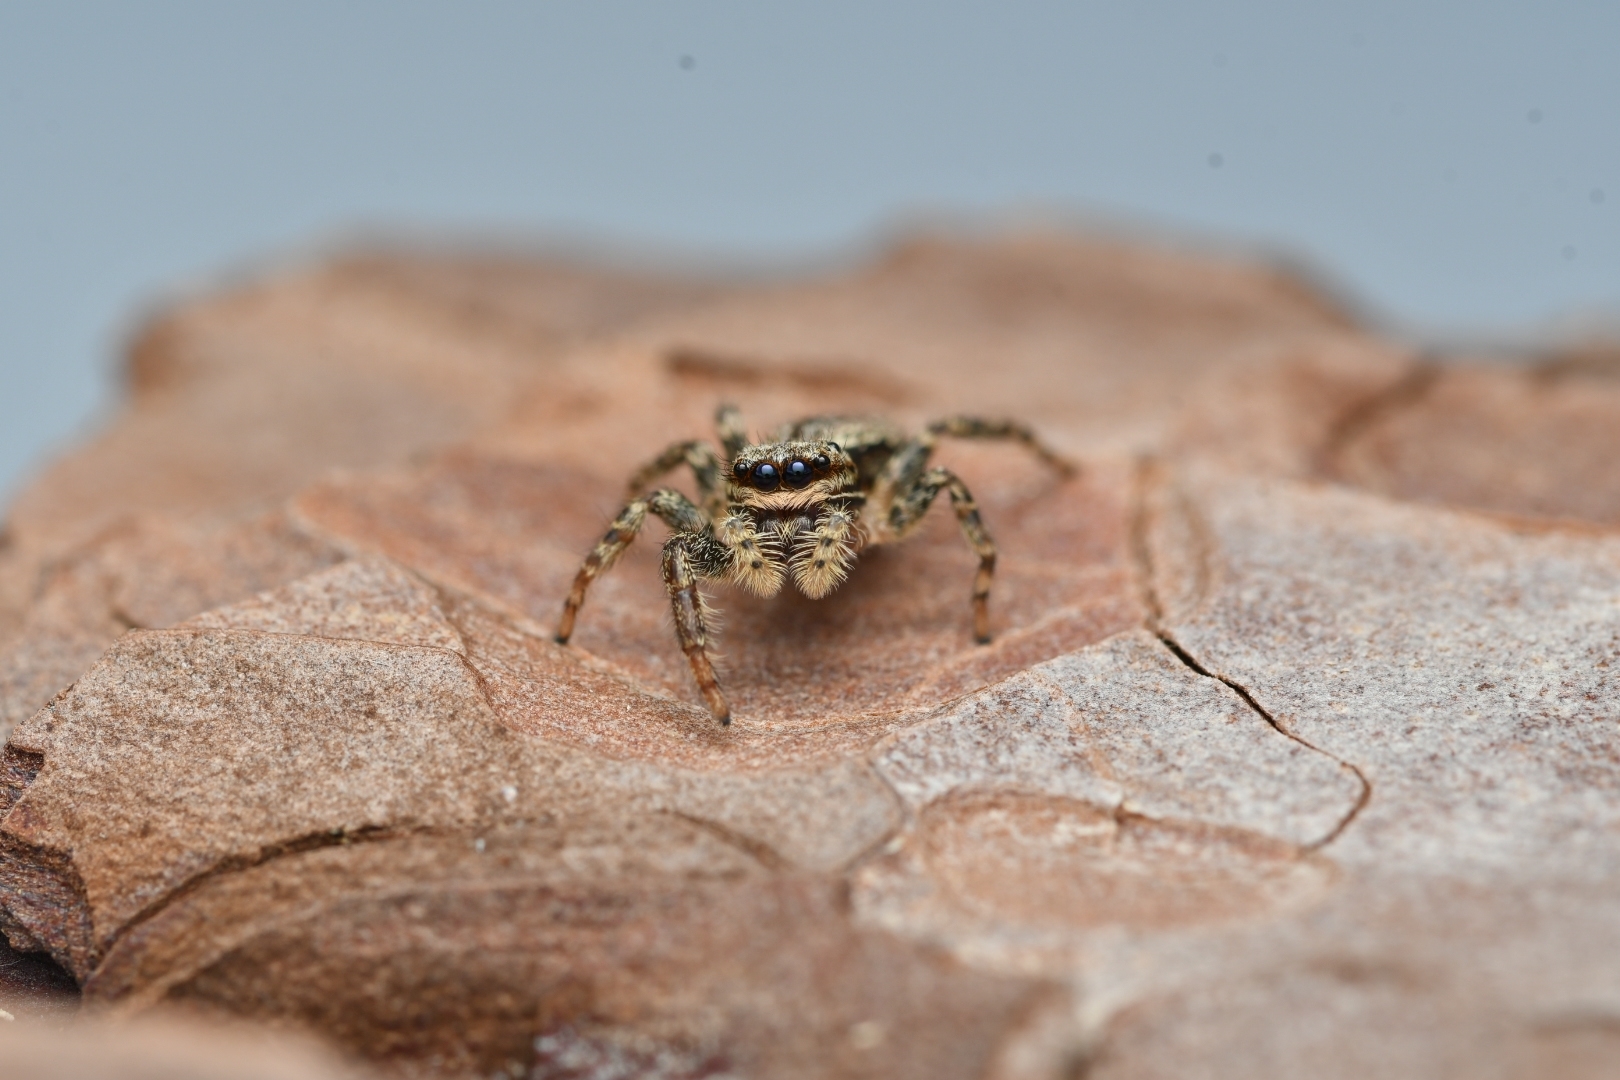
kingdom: Animalia
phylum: Arthropoda
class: Arachnida
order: Araneae
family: Salticidae
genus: Marpissa
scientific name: Marpissa muscosa
